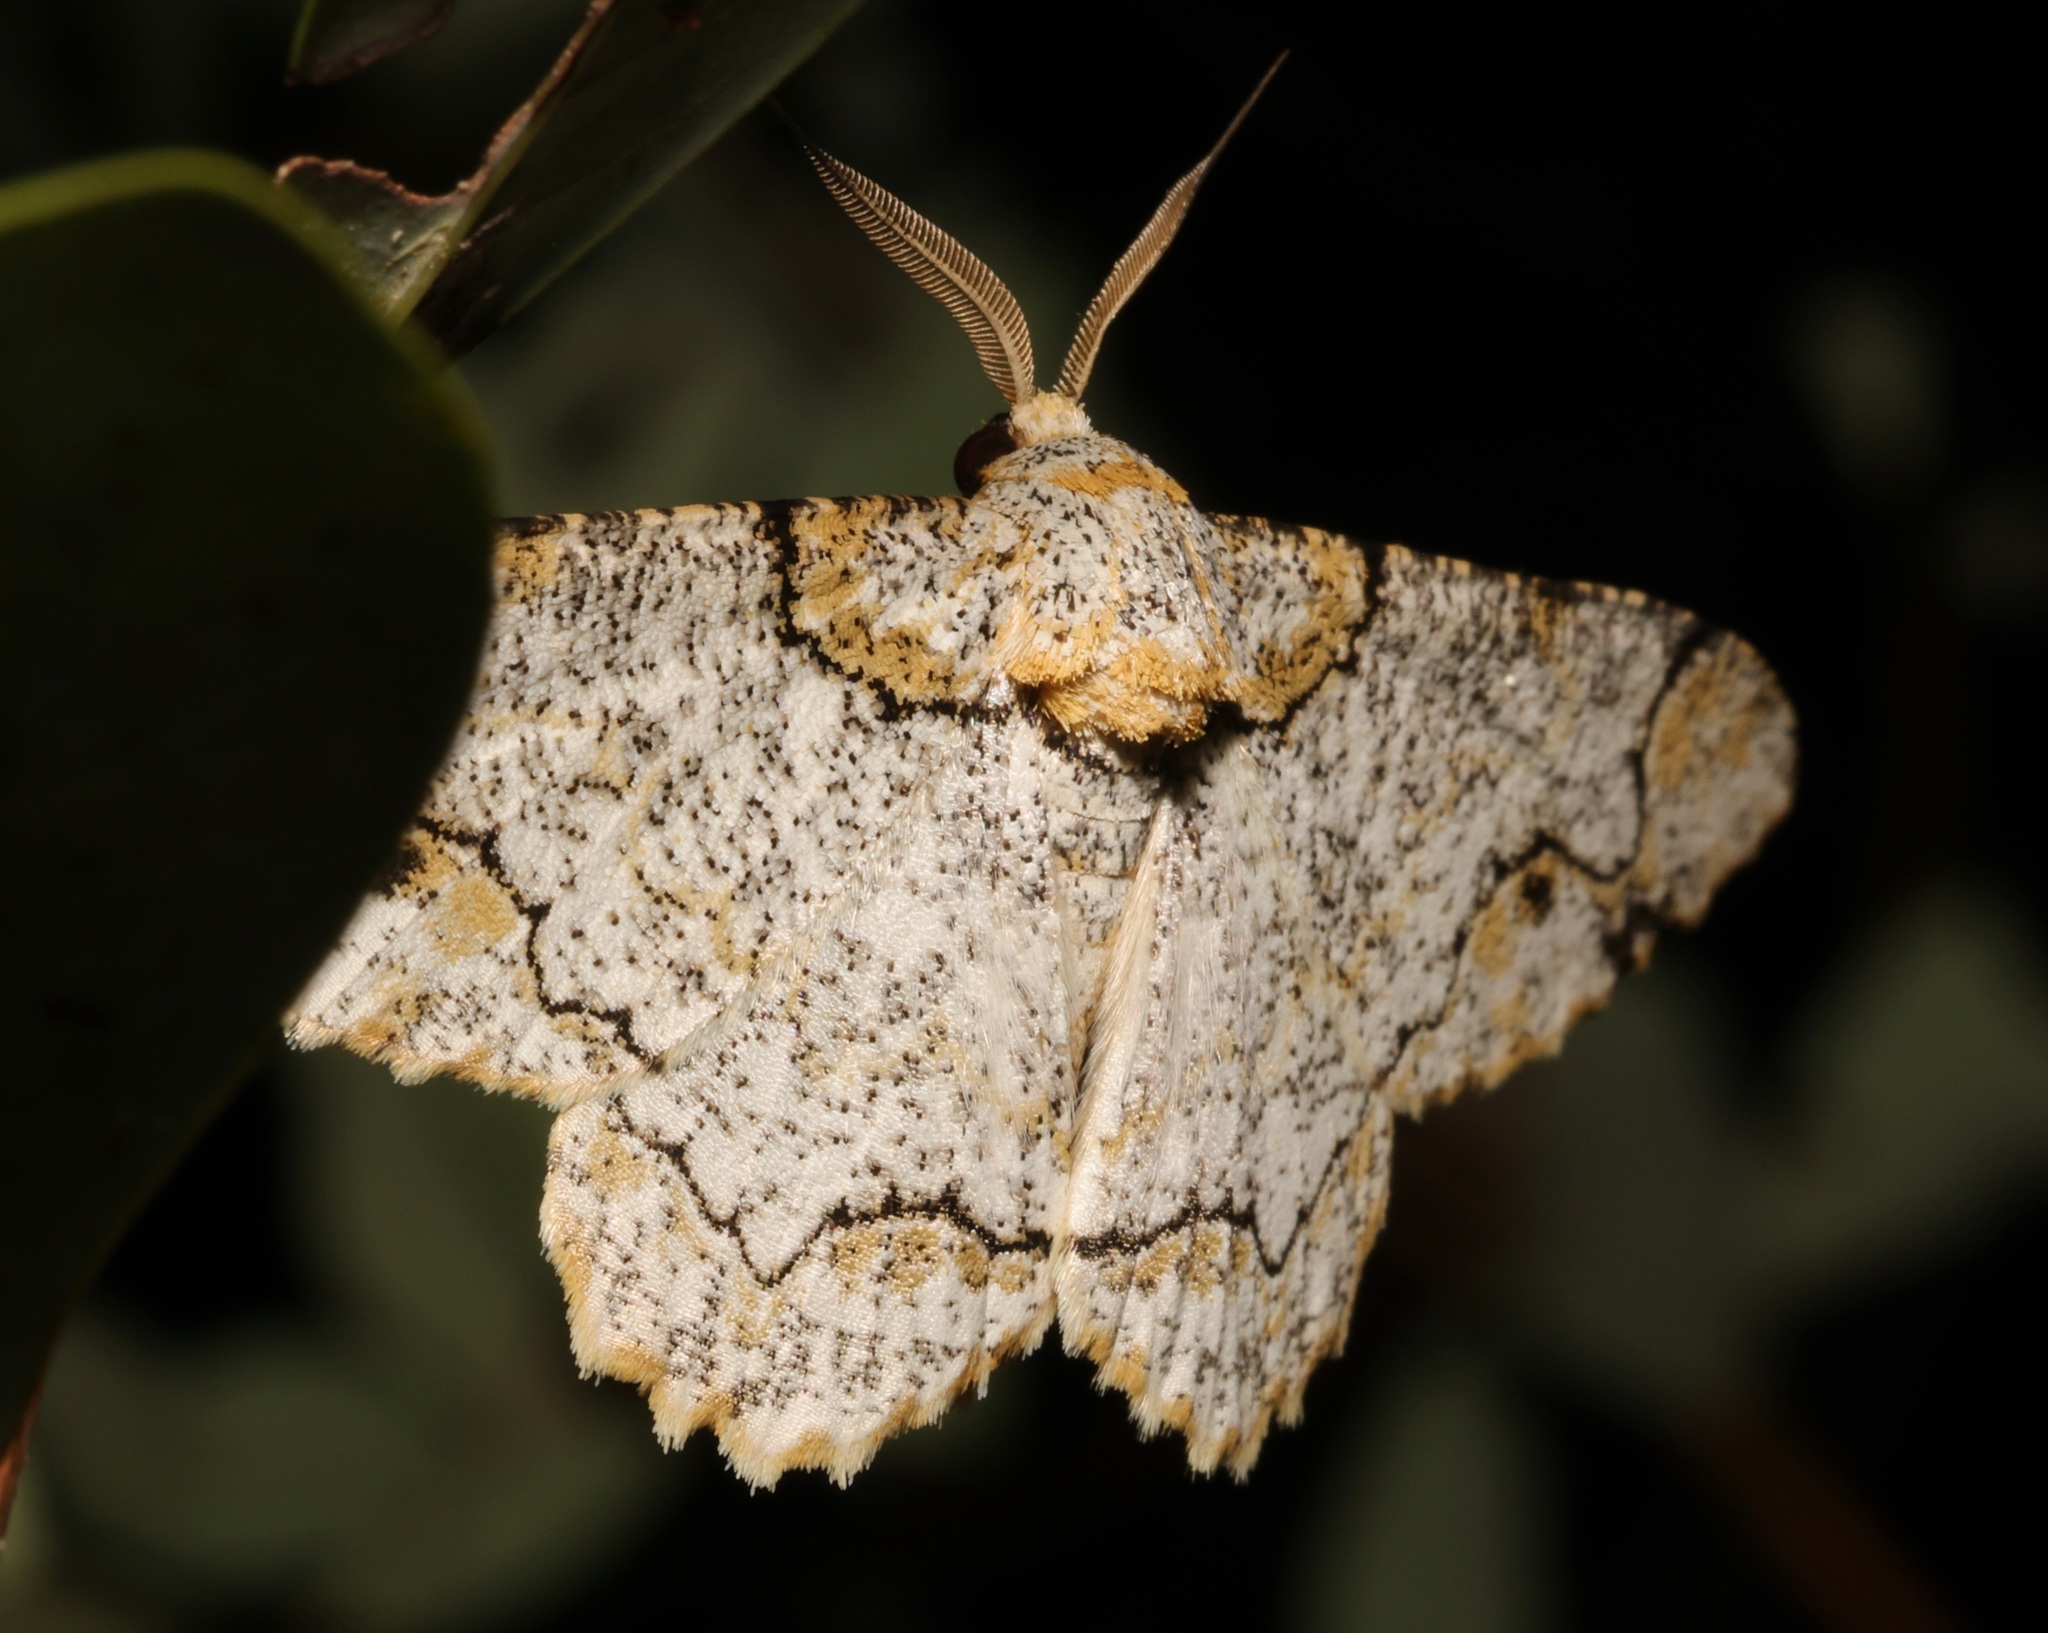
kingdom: Animalia
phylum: Arthropoda
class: Insecta
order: Lepidoptera
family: Geometridae
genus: Biston
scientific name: Biston suppressaria
